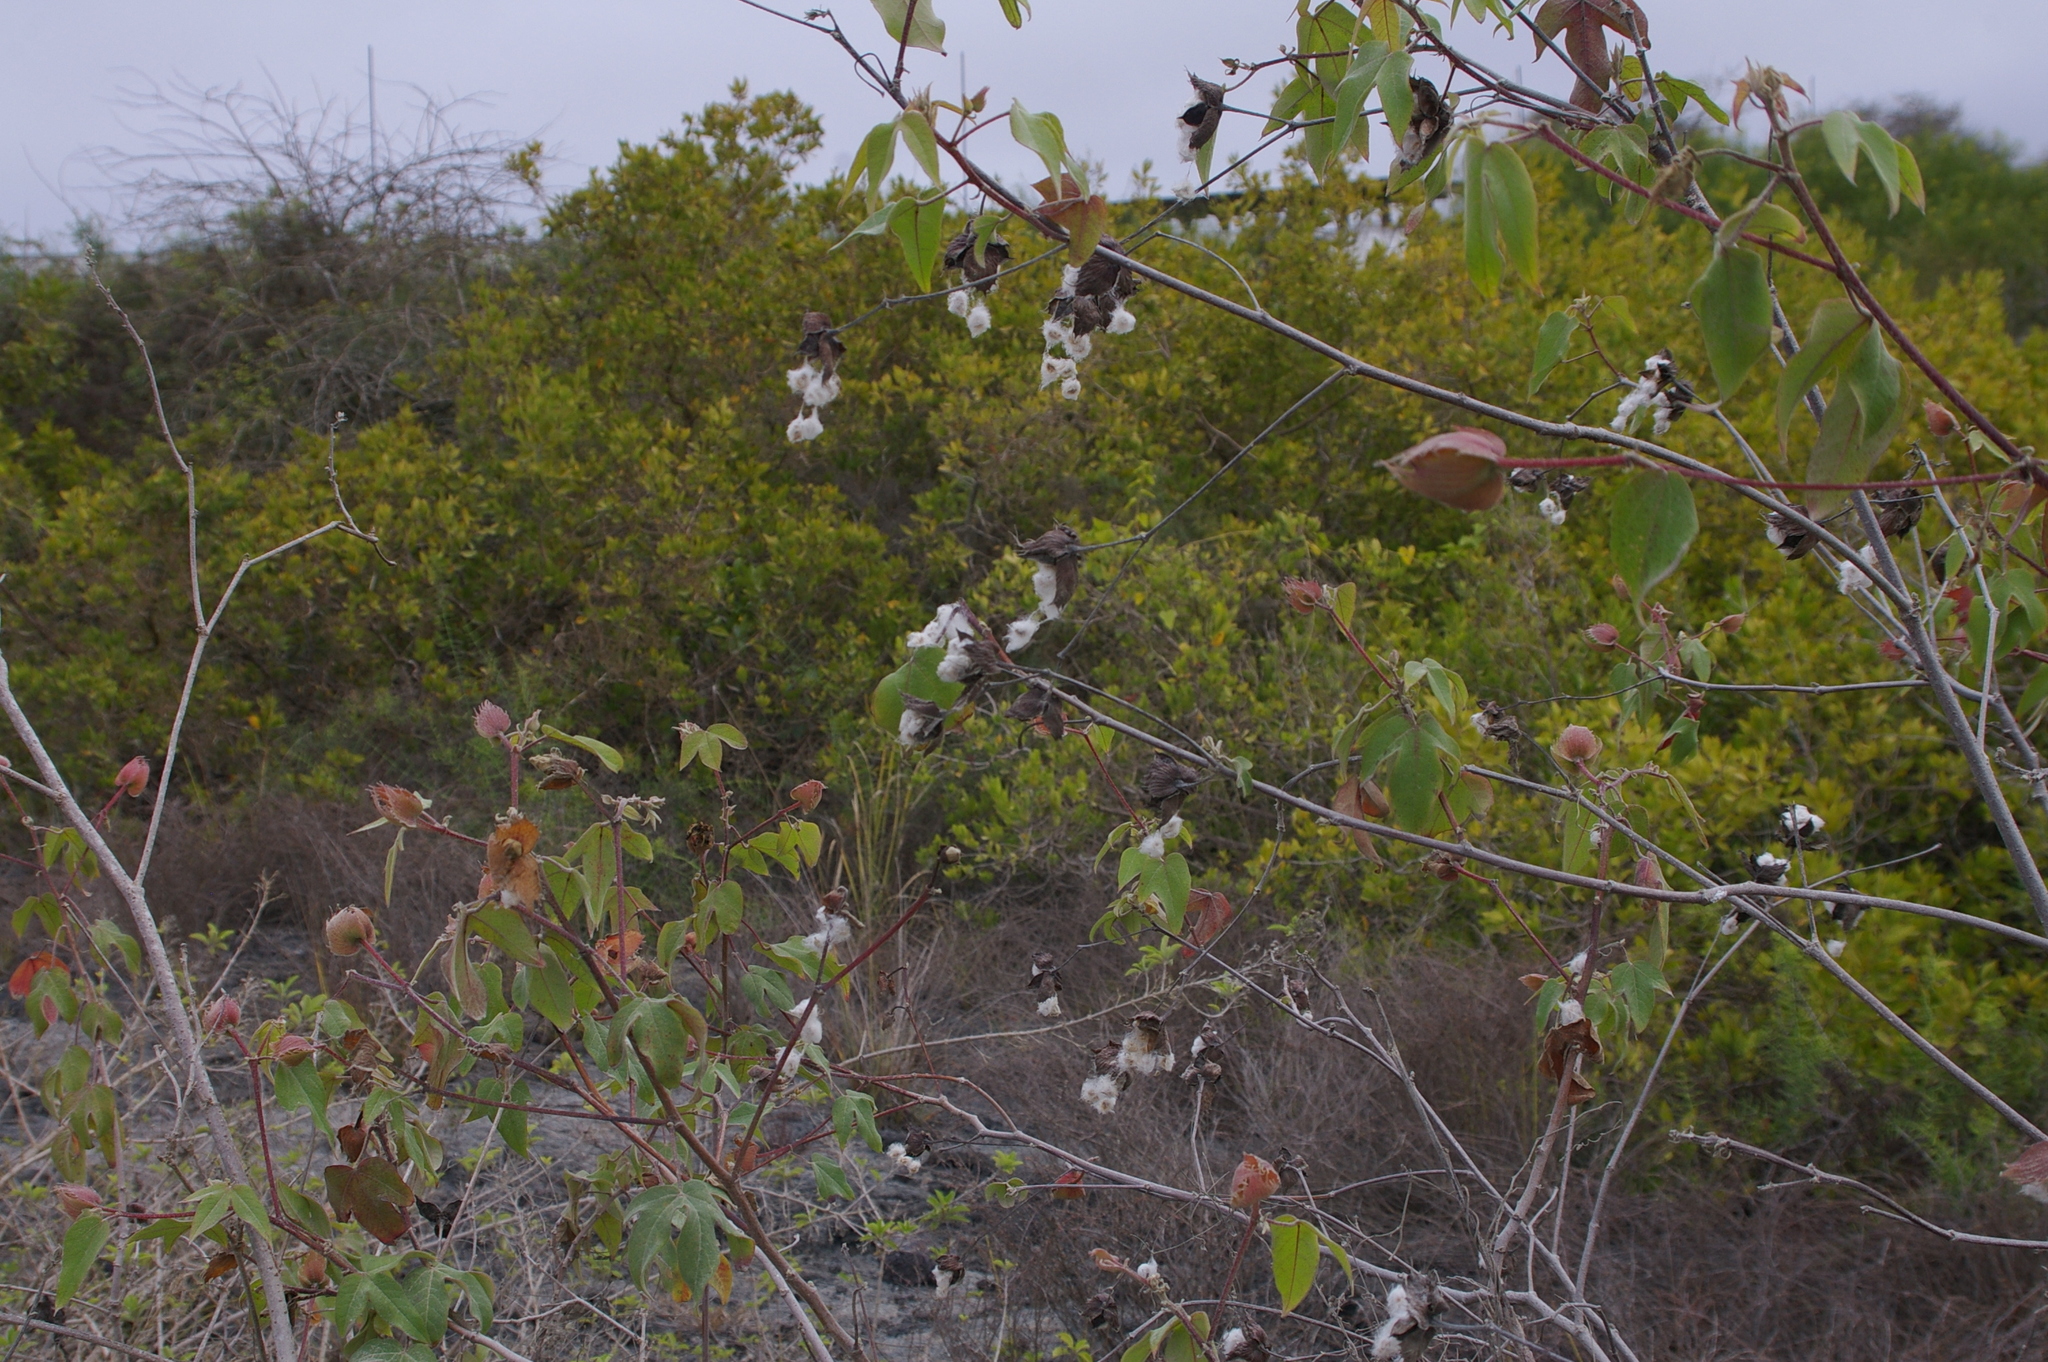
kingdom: Plantae
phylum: Tracheophyta
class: Magnoliopsida
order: Malvales
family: Malvaceae
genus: Gossypium
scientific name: Gossypium darwinii
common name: Darwin's cotton
